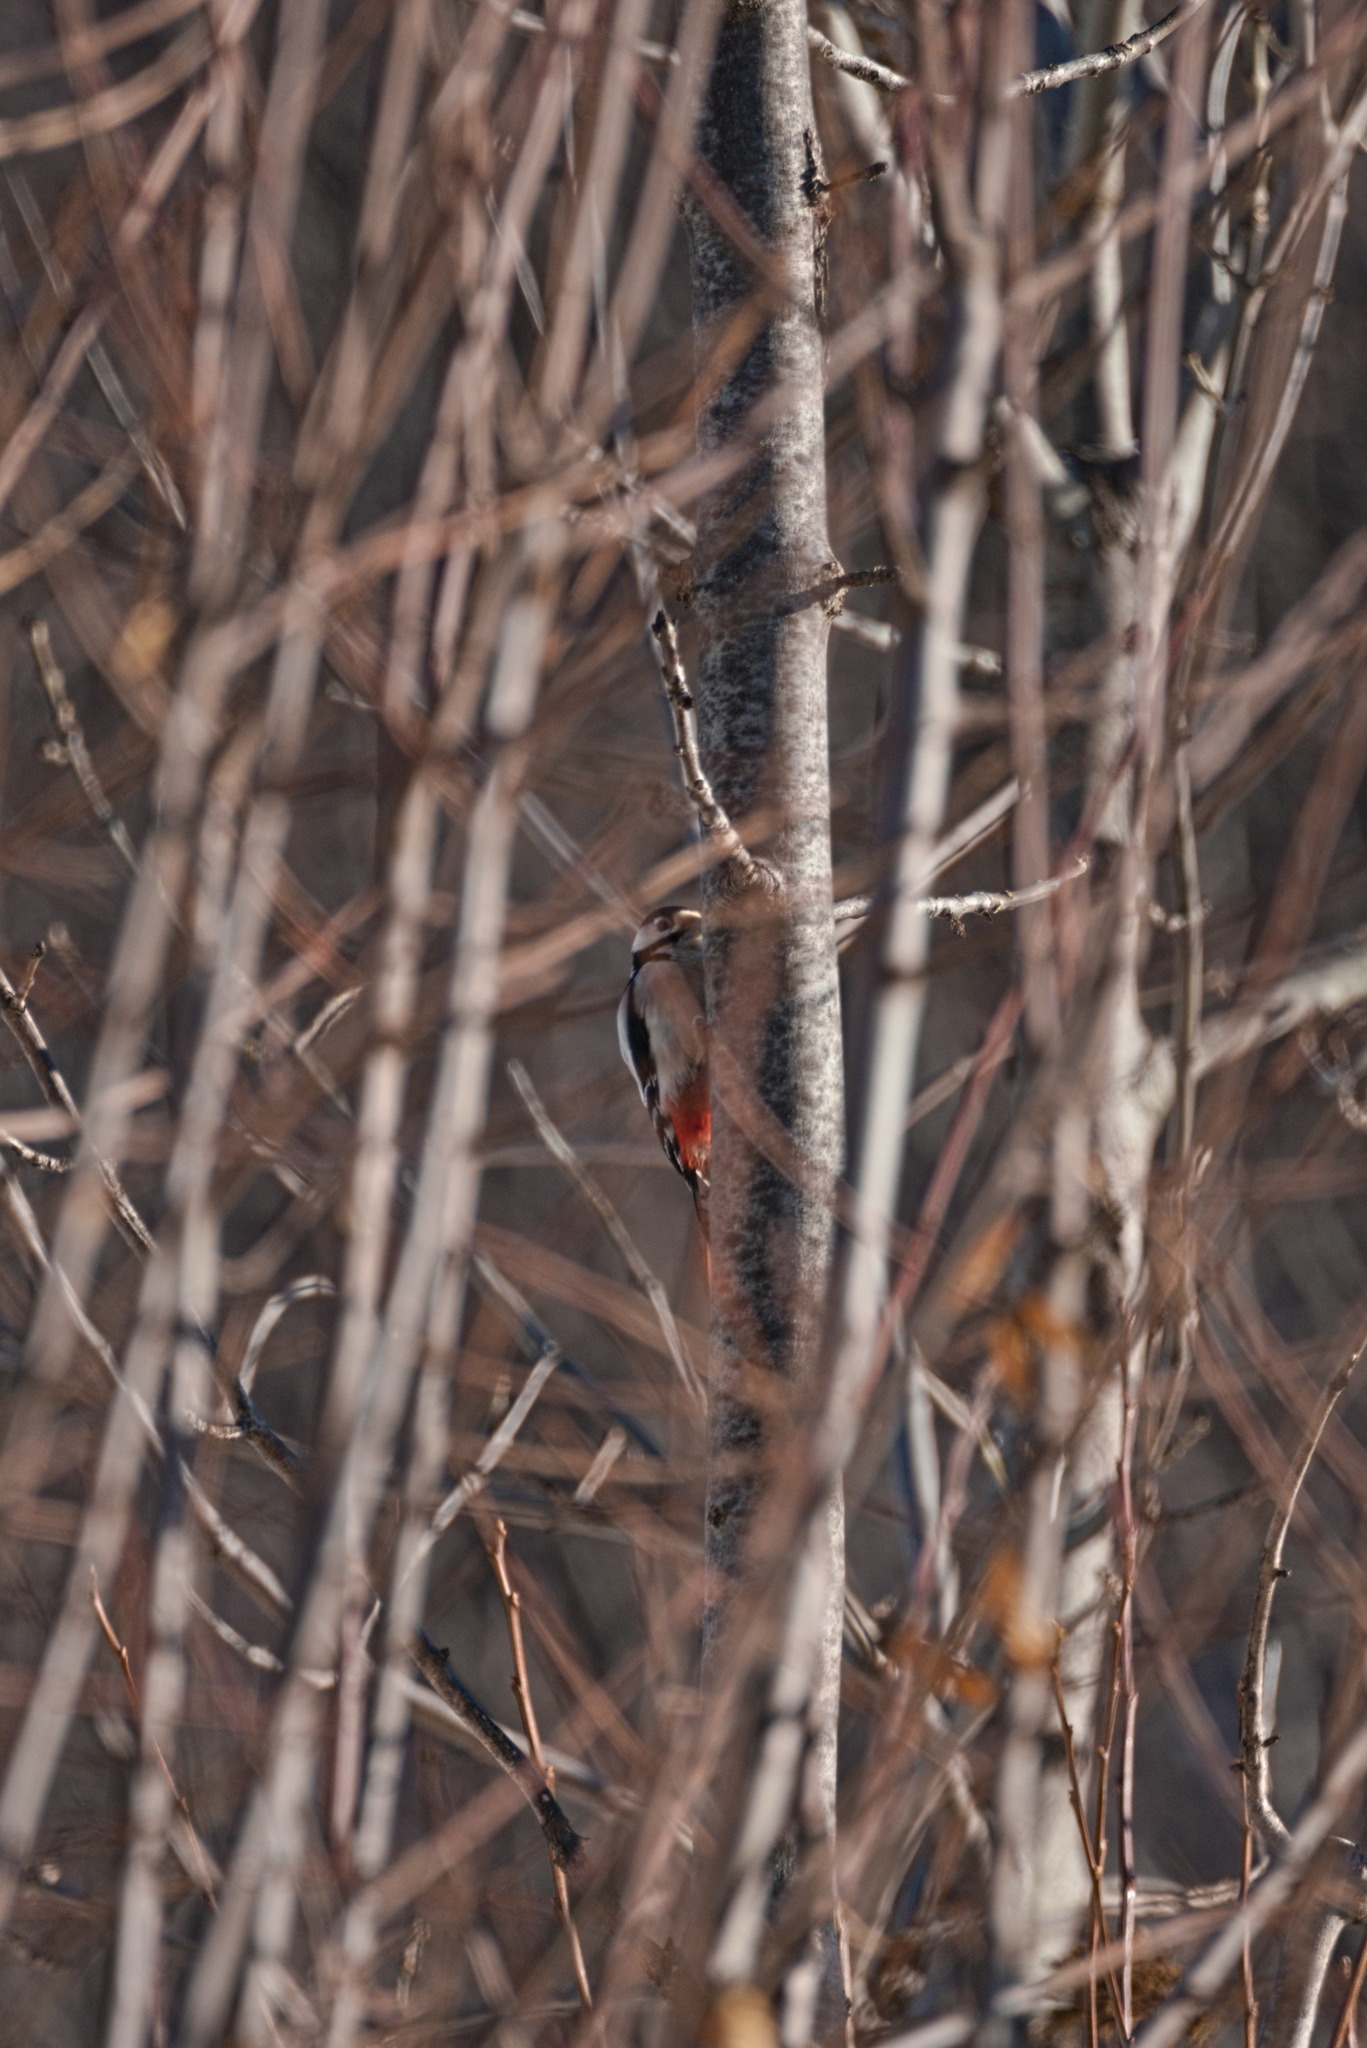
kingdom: Animalia
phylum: Chordata
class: Aves
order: Piciformes
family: Picidae
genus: Dendrocopos
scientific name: Dendrocopos major
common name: Great spotted woodpecker
